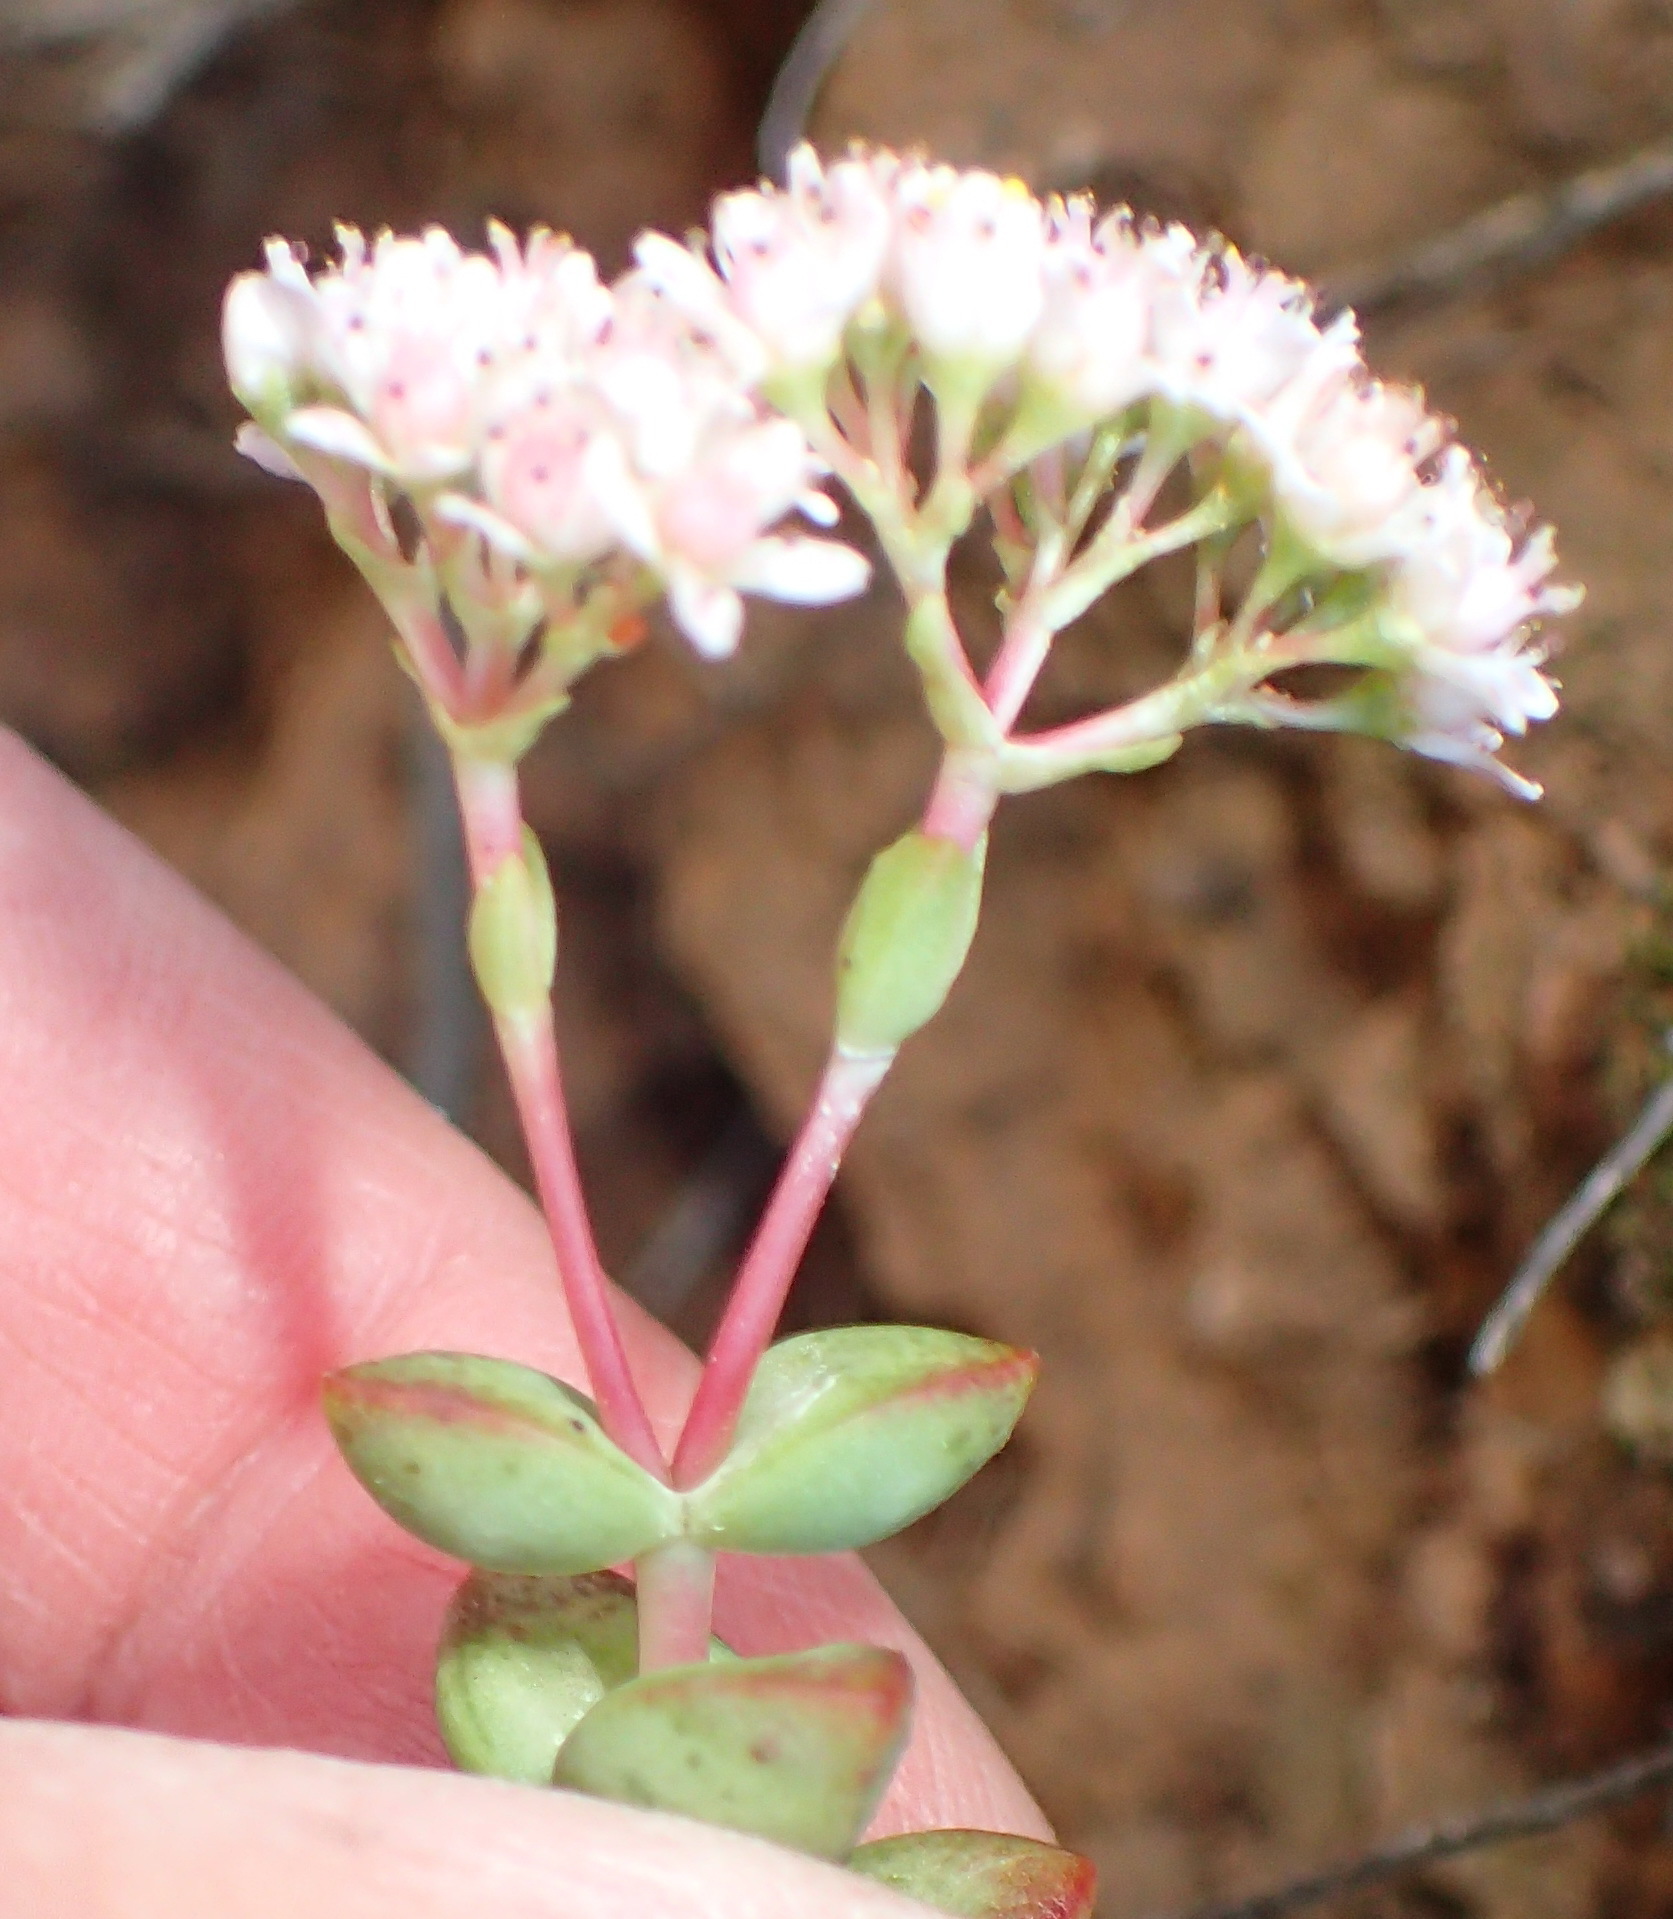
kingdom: Plantae
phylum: Tracheophyta
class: Magnoliopsida
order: Saxifragales
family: Crassulaceae
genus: Crassula
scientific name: Crassula rupestris
